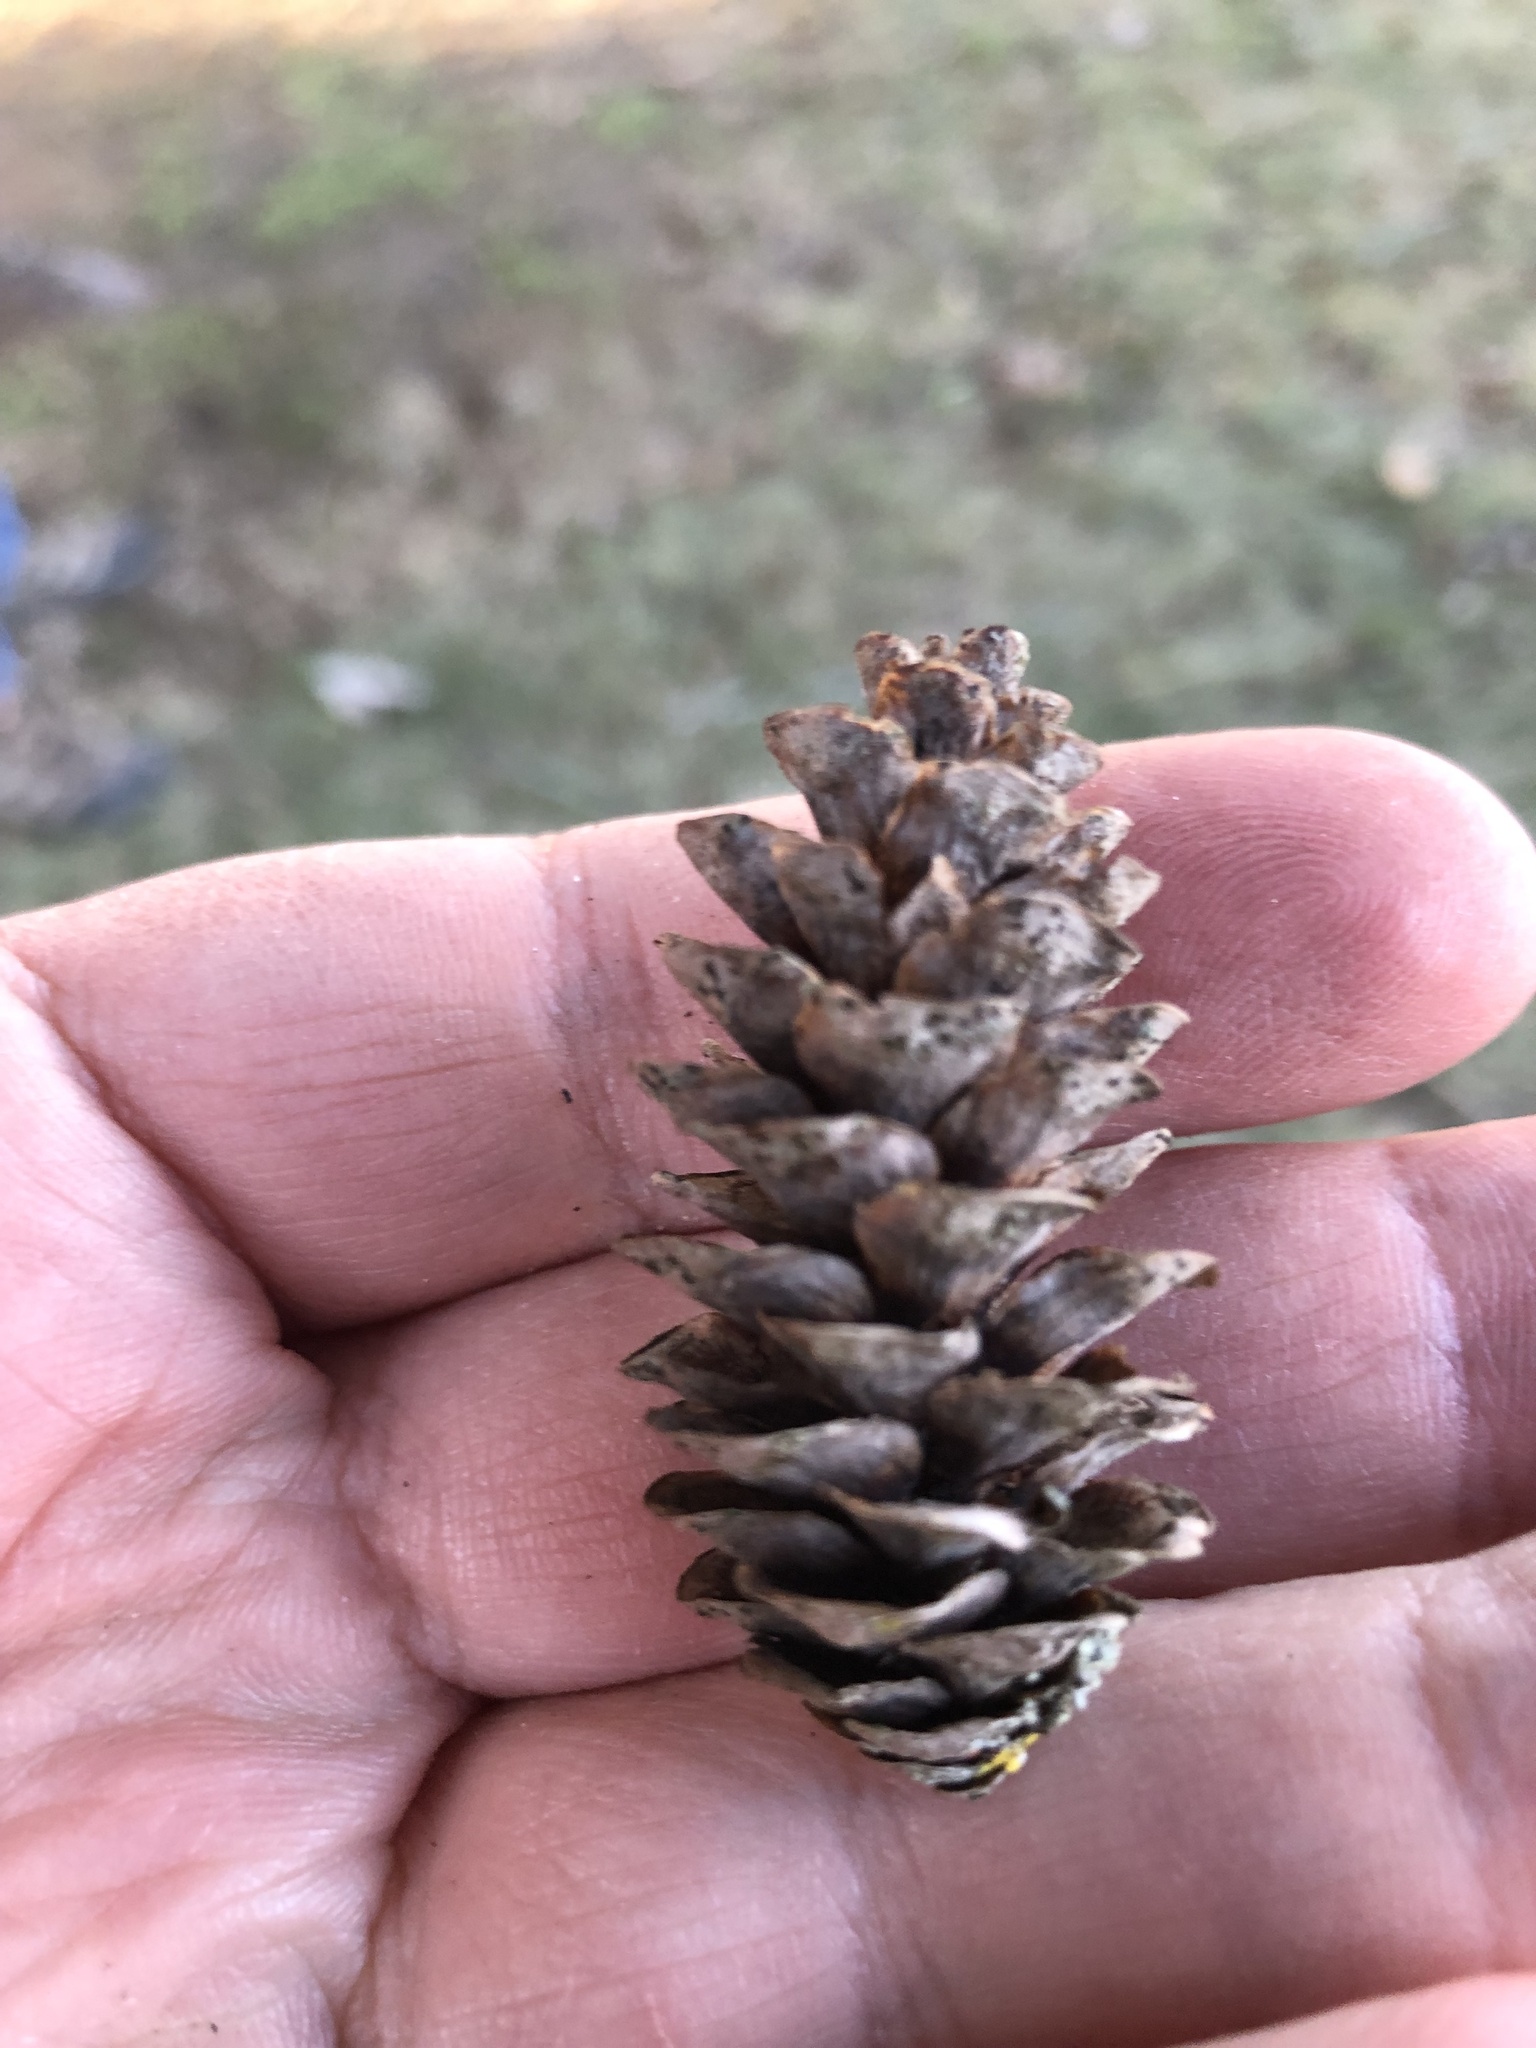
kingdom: Plantae
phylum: Tracheophyta
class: Pinopsida
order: Pinales
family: Pinaceae
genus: Picea
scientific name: Picea glauca
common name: White spruce
